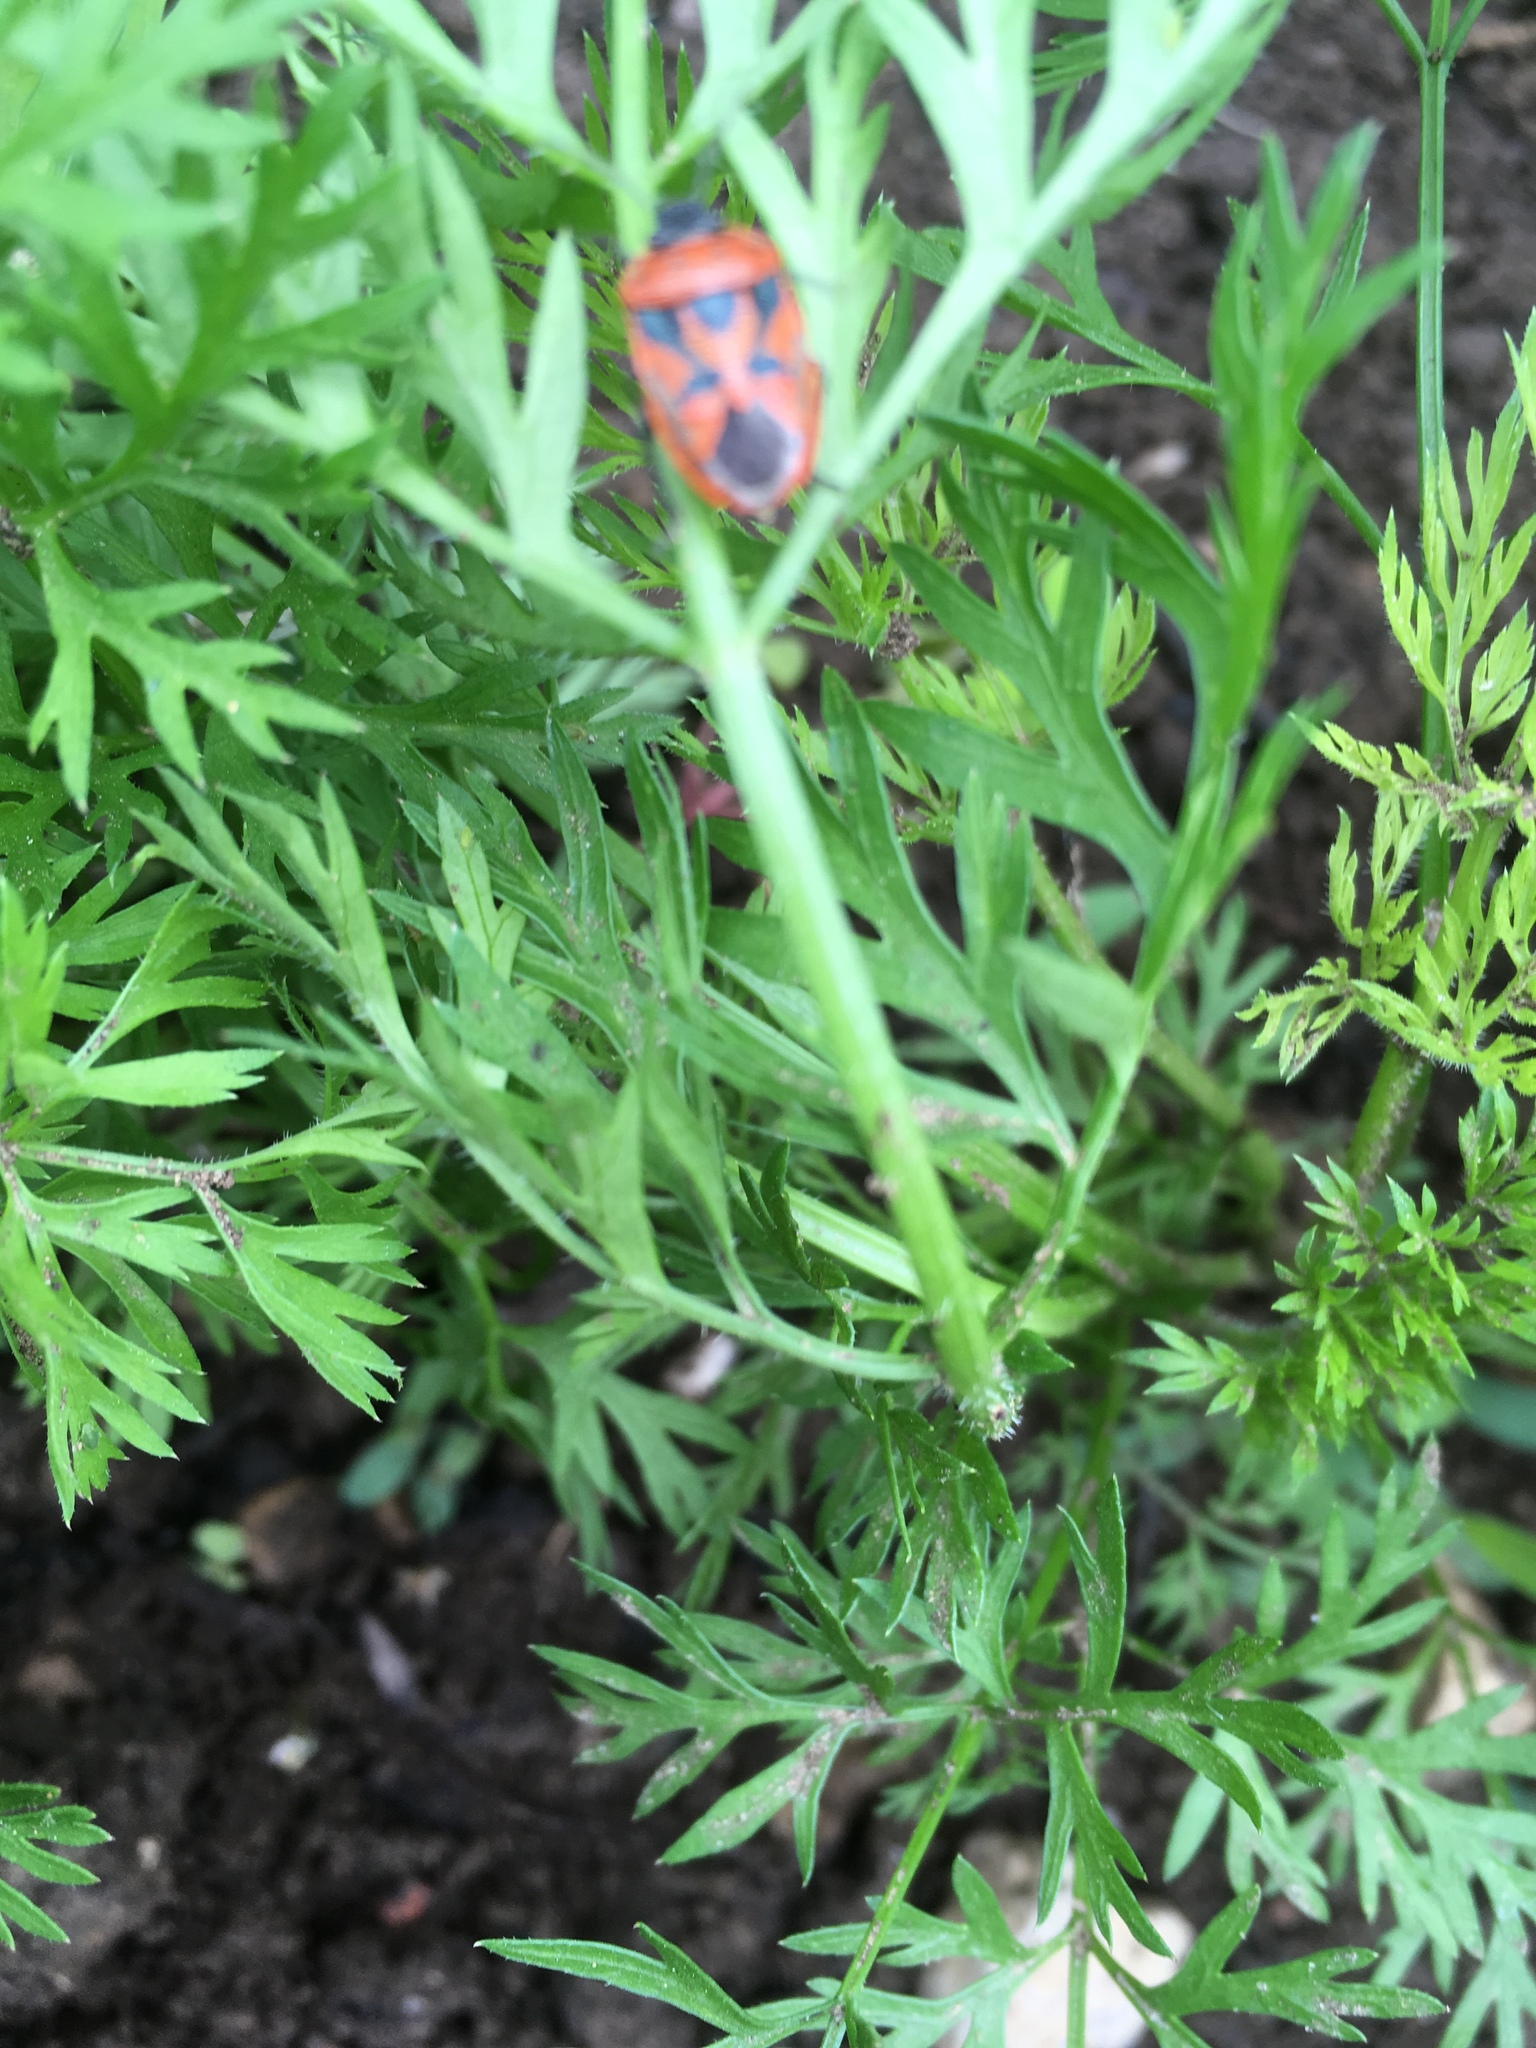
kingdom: Animalia
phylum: Arthropoda
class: Insecta
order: Hemiptera
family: Pentatomidae
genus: Eurydema
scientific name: Eurydema ornata
